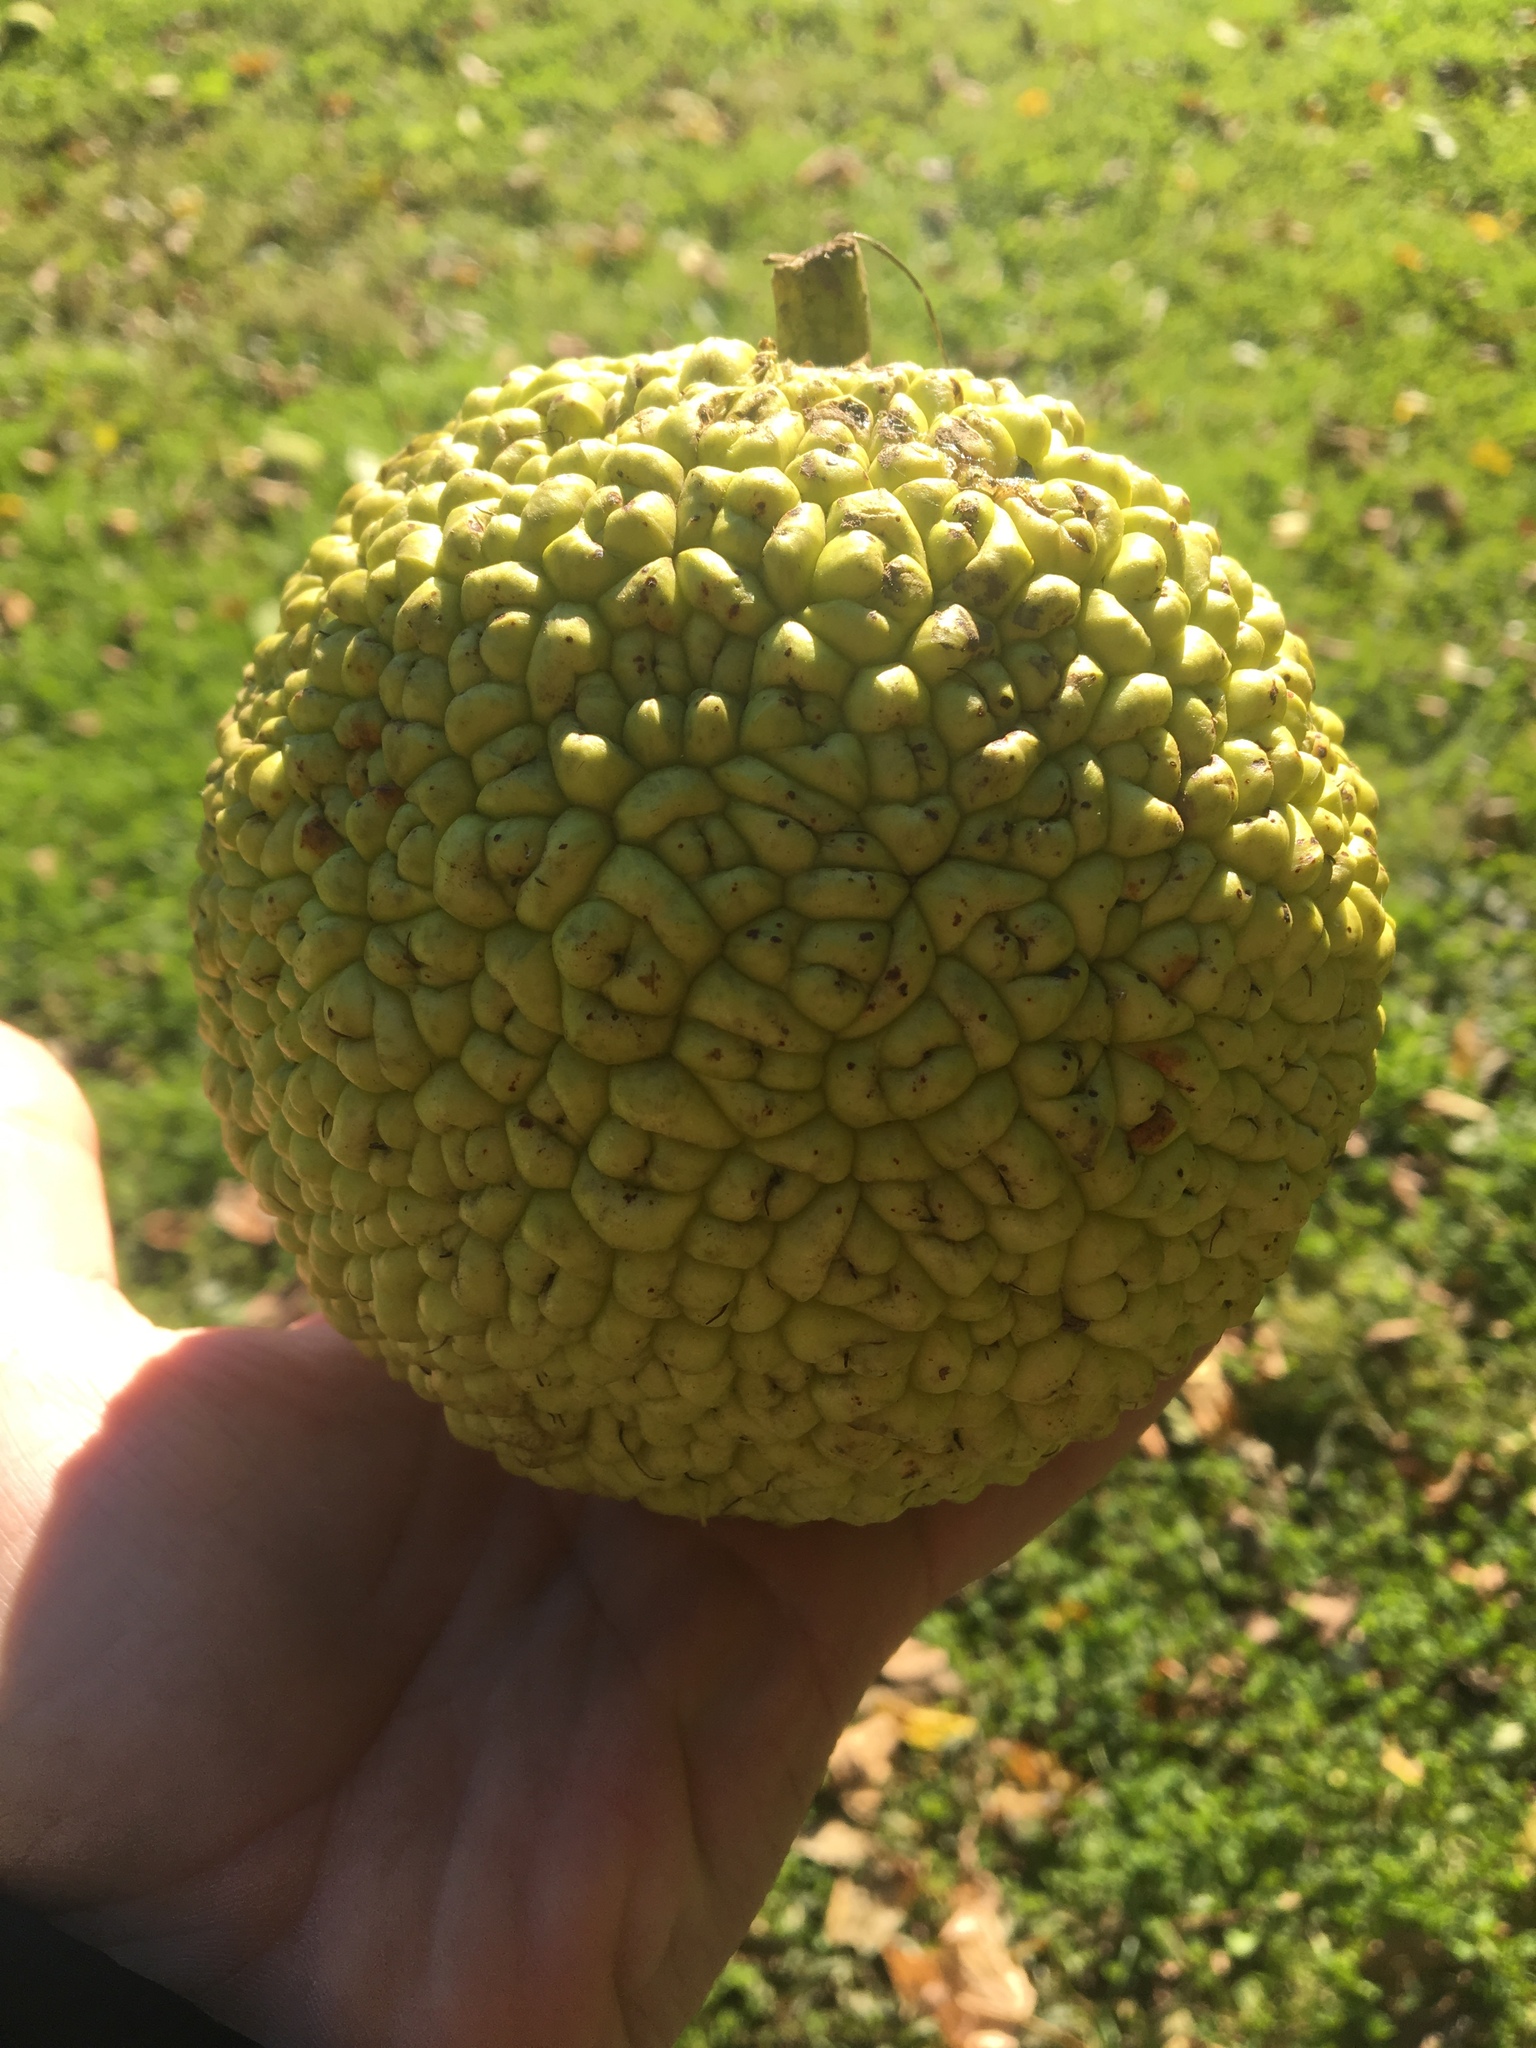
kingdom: Plantae
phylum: Tracheophyta
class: Magnoliopsida
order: Rosales
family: Moraceae
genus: Maclura
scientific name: Maclura pomifera
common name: Osage-orange
